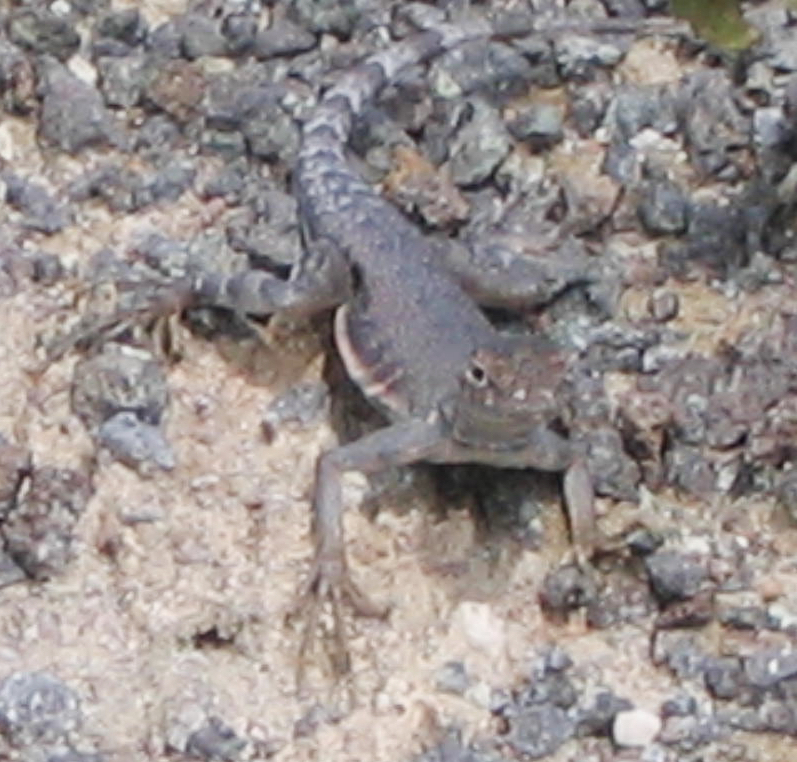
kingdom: Animalia
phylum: Chordata
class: Squamata
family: Phrynosomatidae
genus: Callisaurus
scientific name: Callisaurus draconoides
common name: Zebra-tailed lizard
